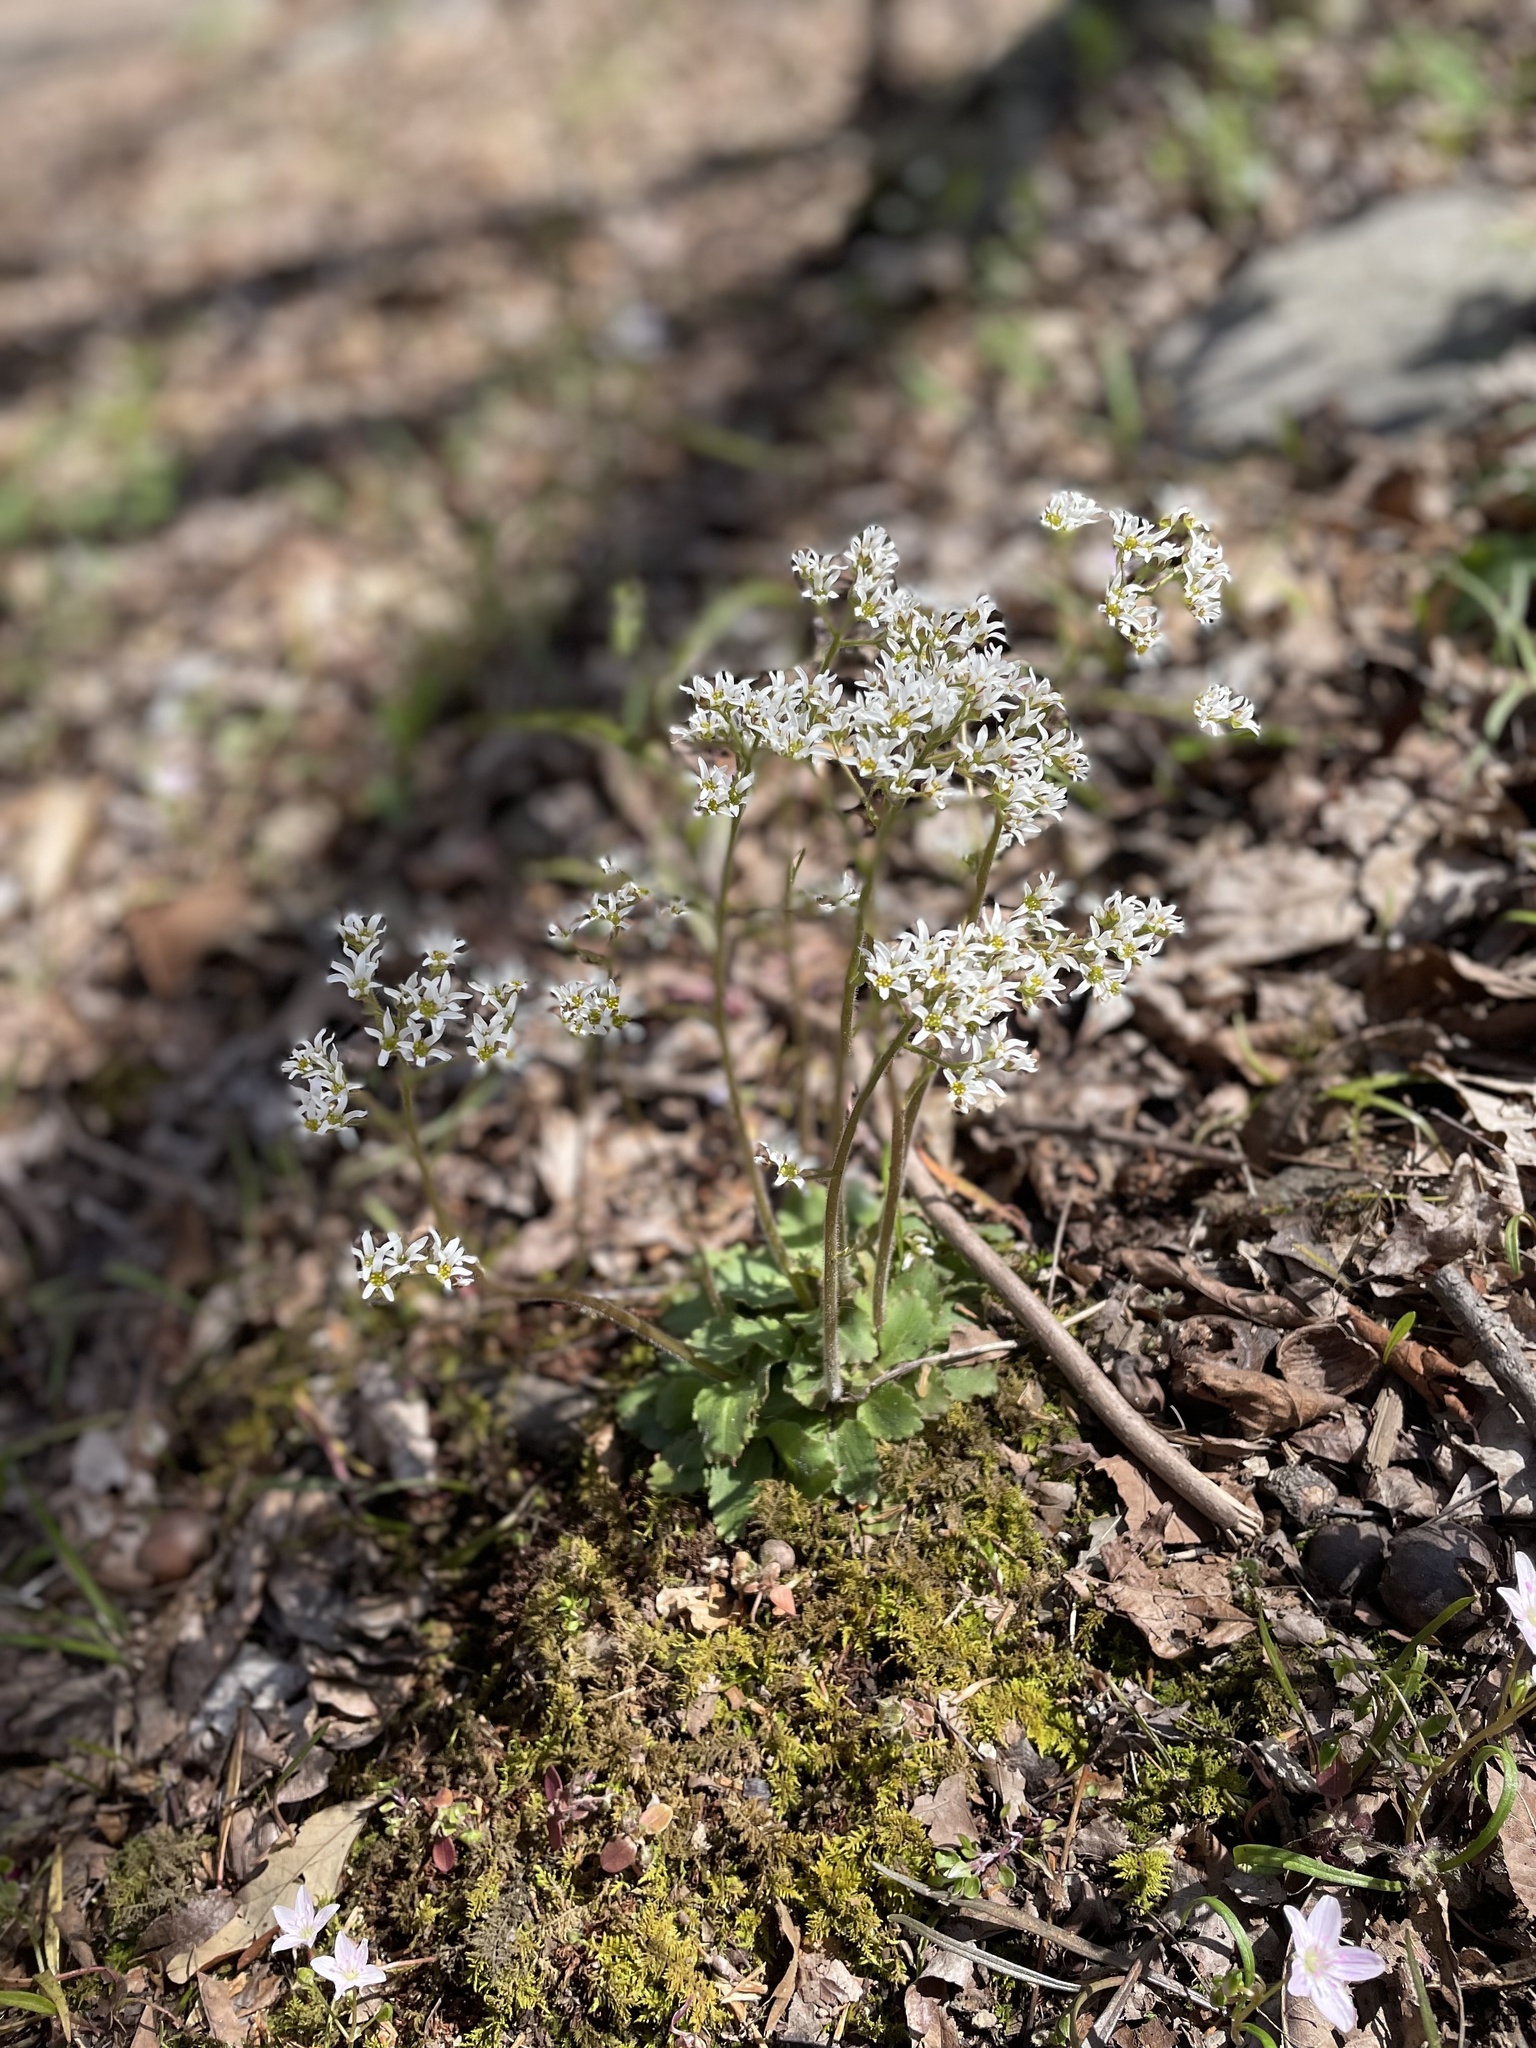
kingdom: Plantae
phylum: Tracheophyta
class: Magnoliopsida
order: Saxifragales
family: Saxifragaceae
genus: Micranthes
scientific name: Micranthes virginiensis
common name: Early saxifrage
